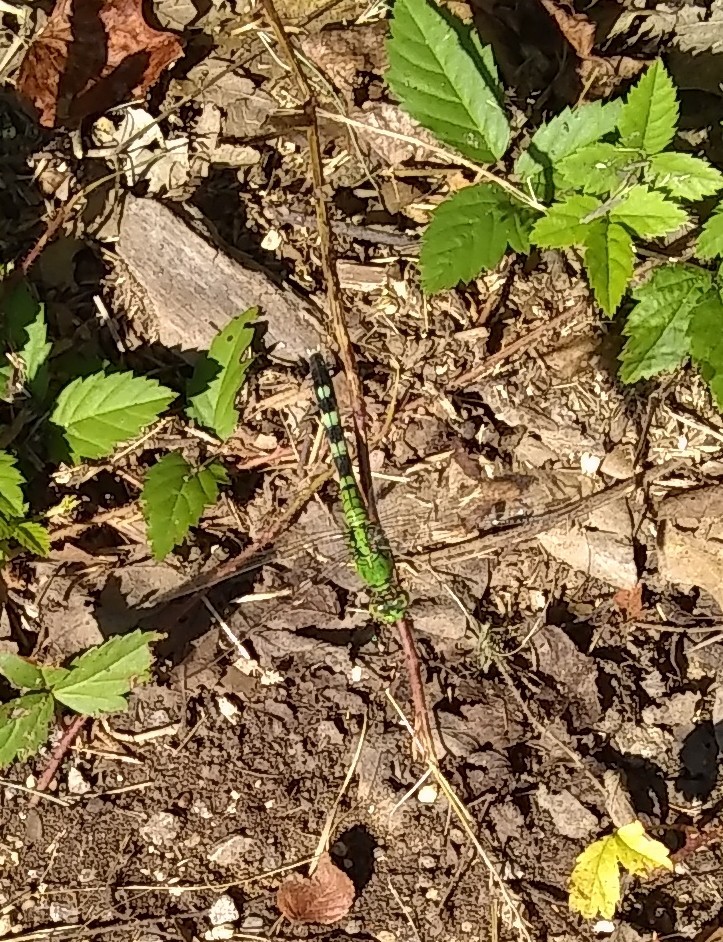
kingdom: Animalia
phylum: Arthropoda
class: Insecta
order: Odonata
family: Libellulidae
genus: Erythemis
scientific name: Erythemis simplicicollis
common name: Eastern pondhawk
